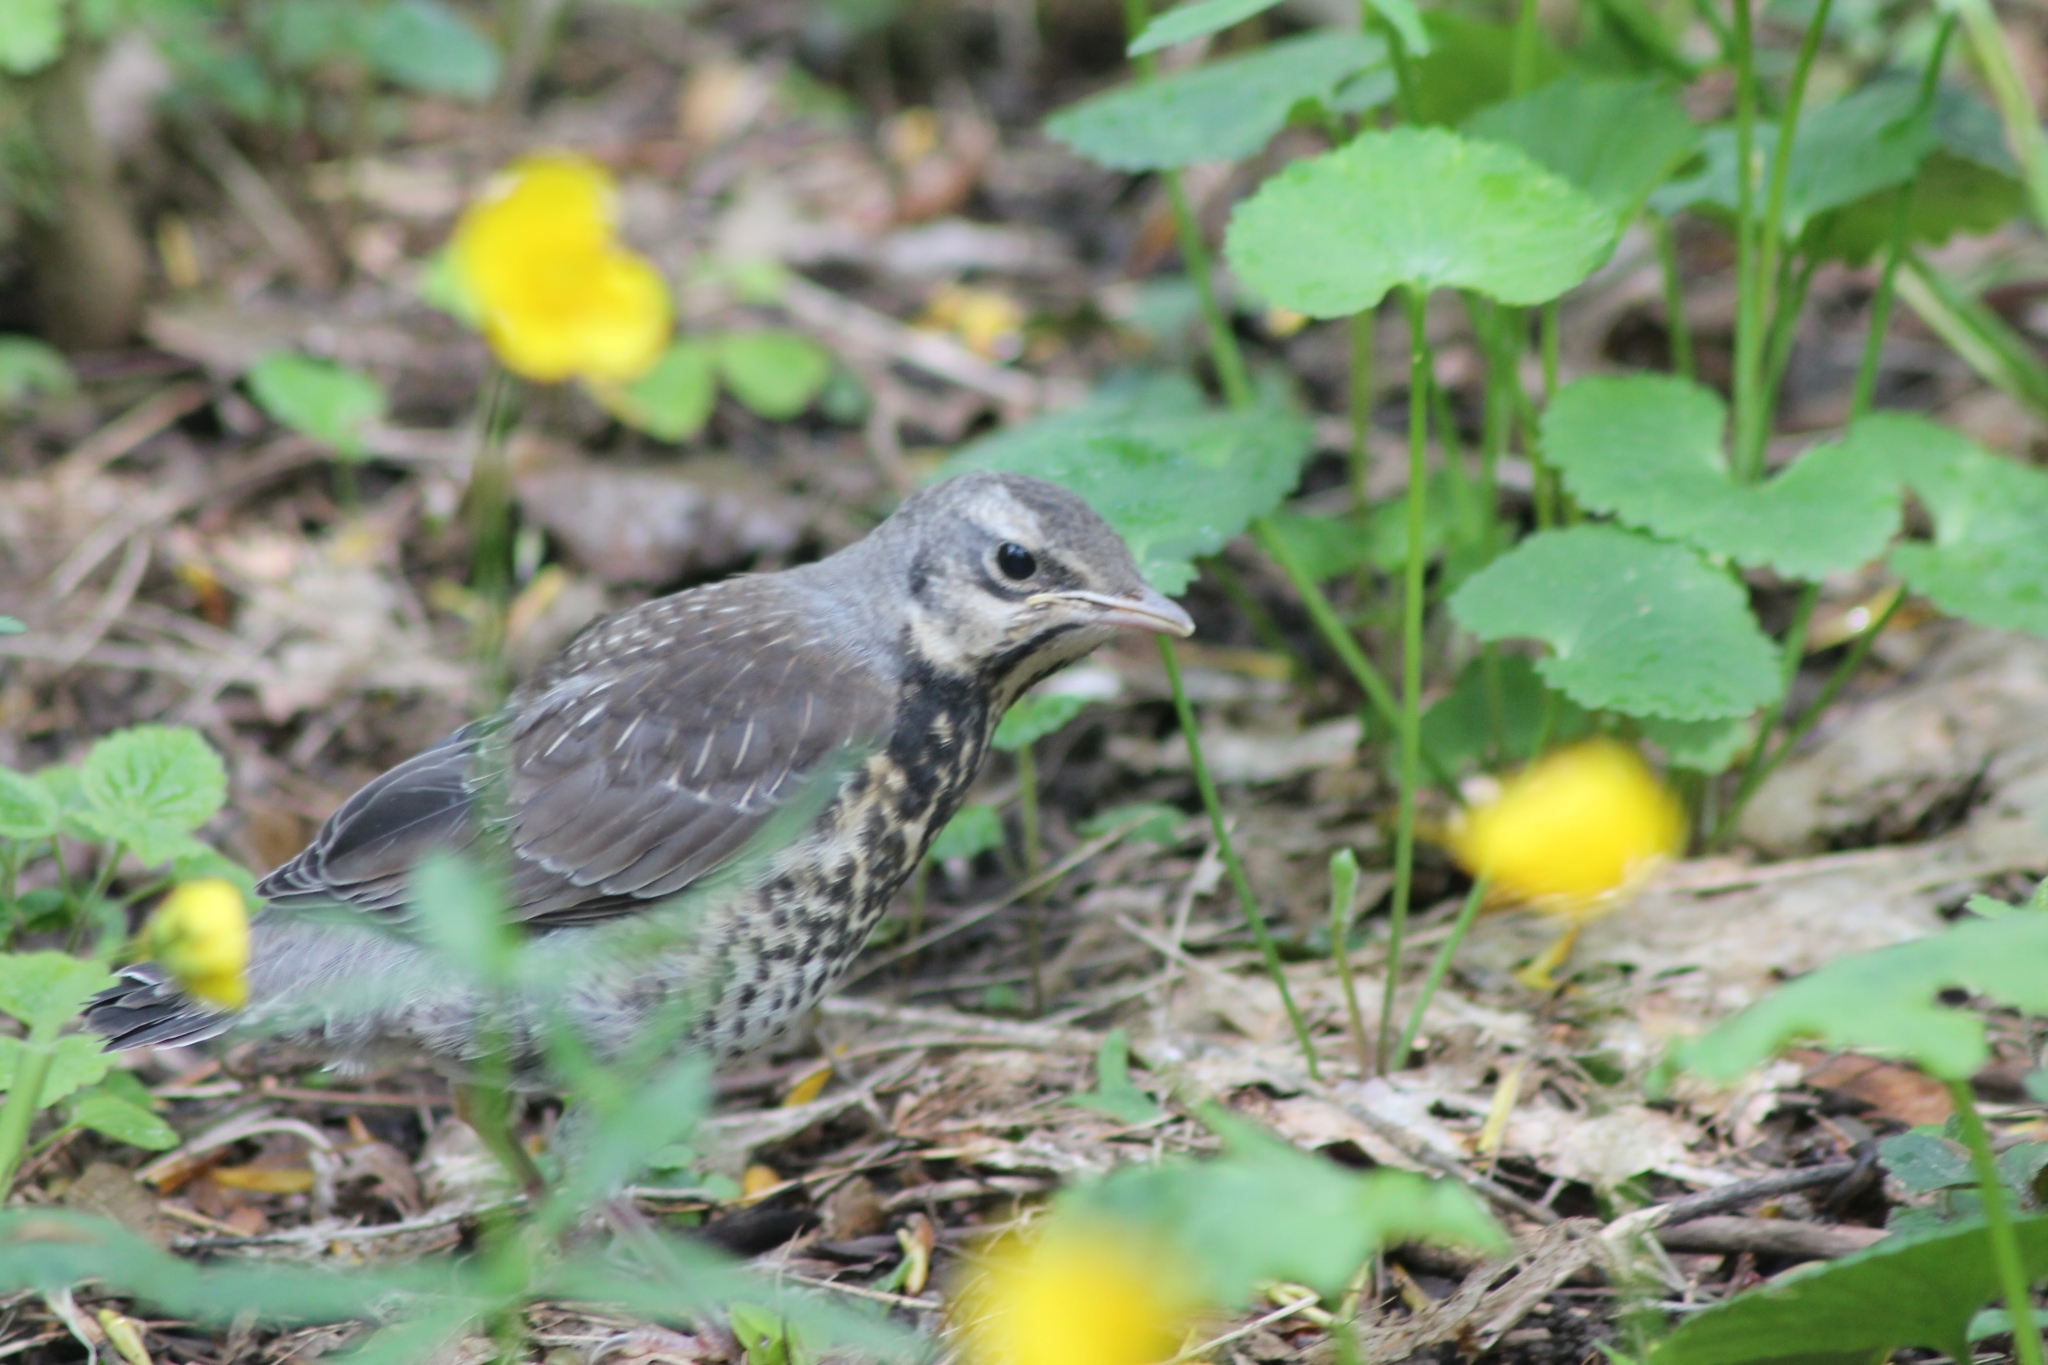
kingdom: Animalia
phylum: Chordata
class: Aves
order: Passeriformes
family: Turdidae
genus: Turdus
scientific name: Turdus pilaris
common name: Fieldfare
